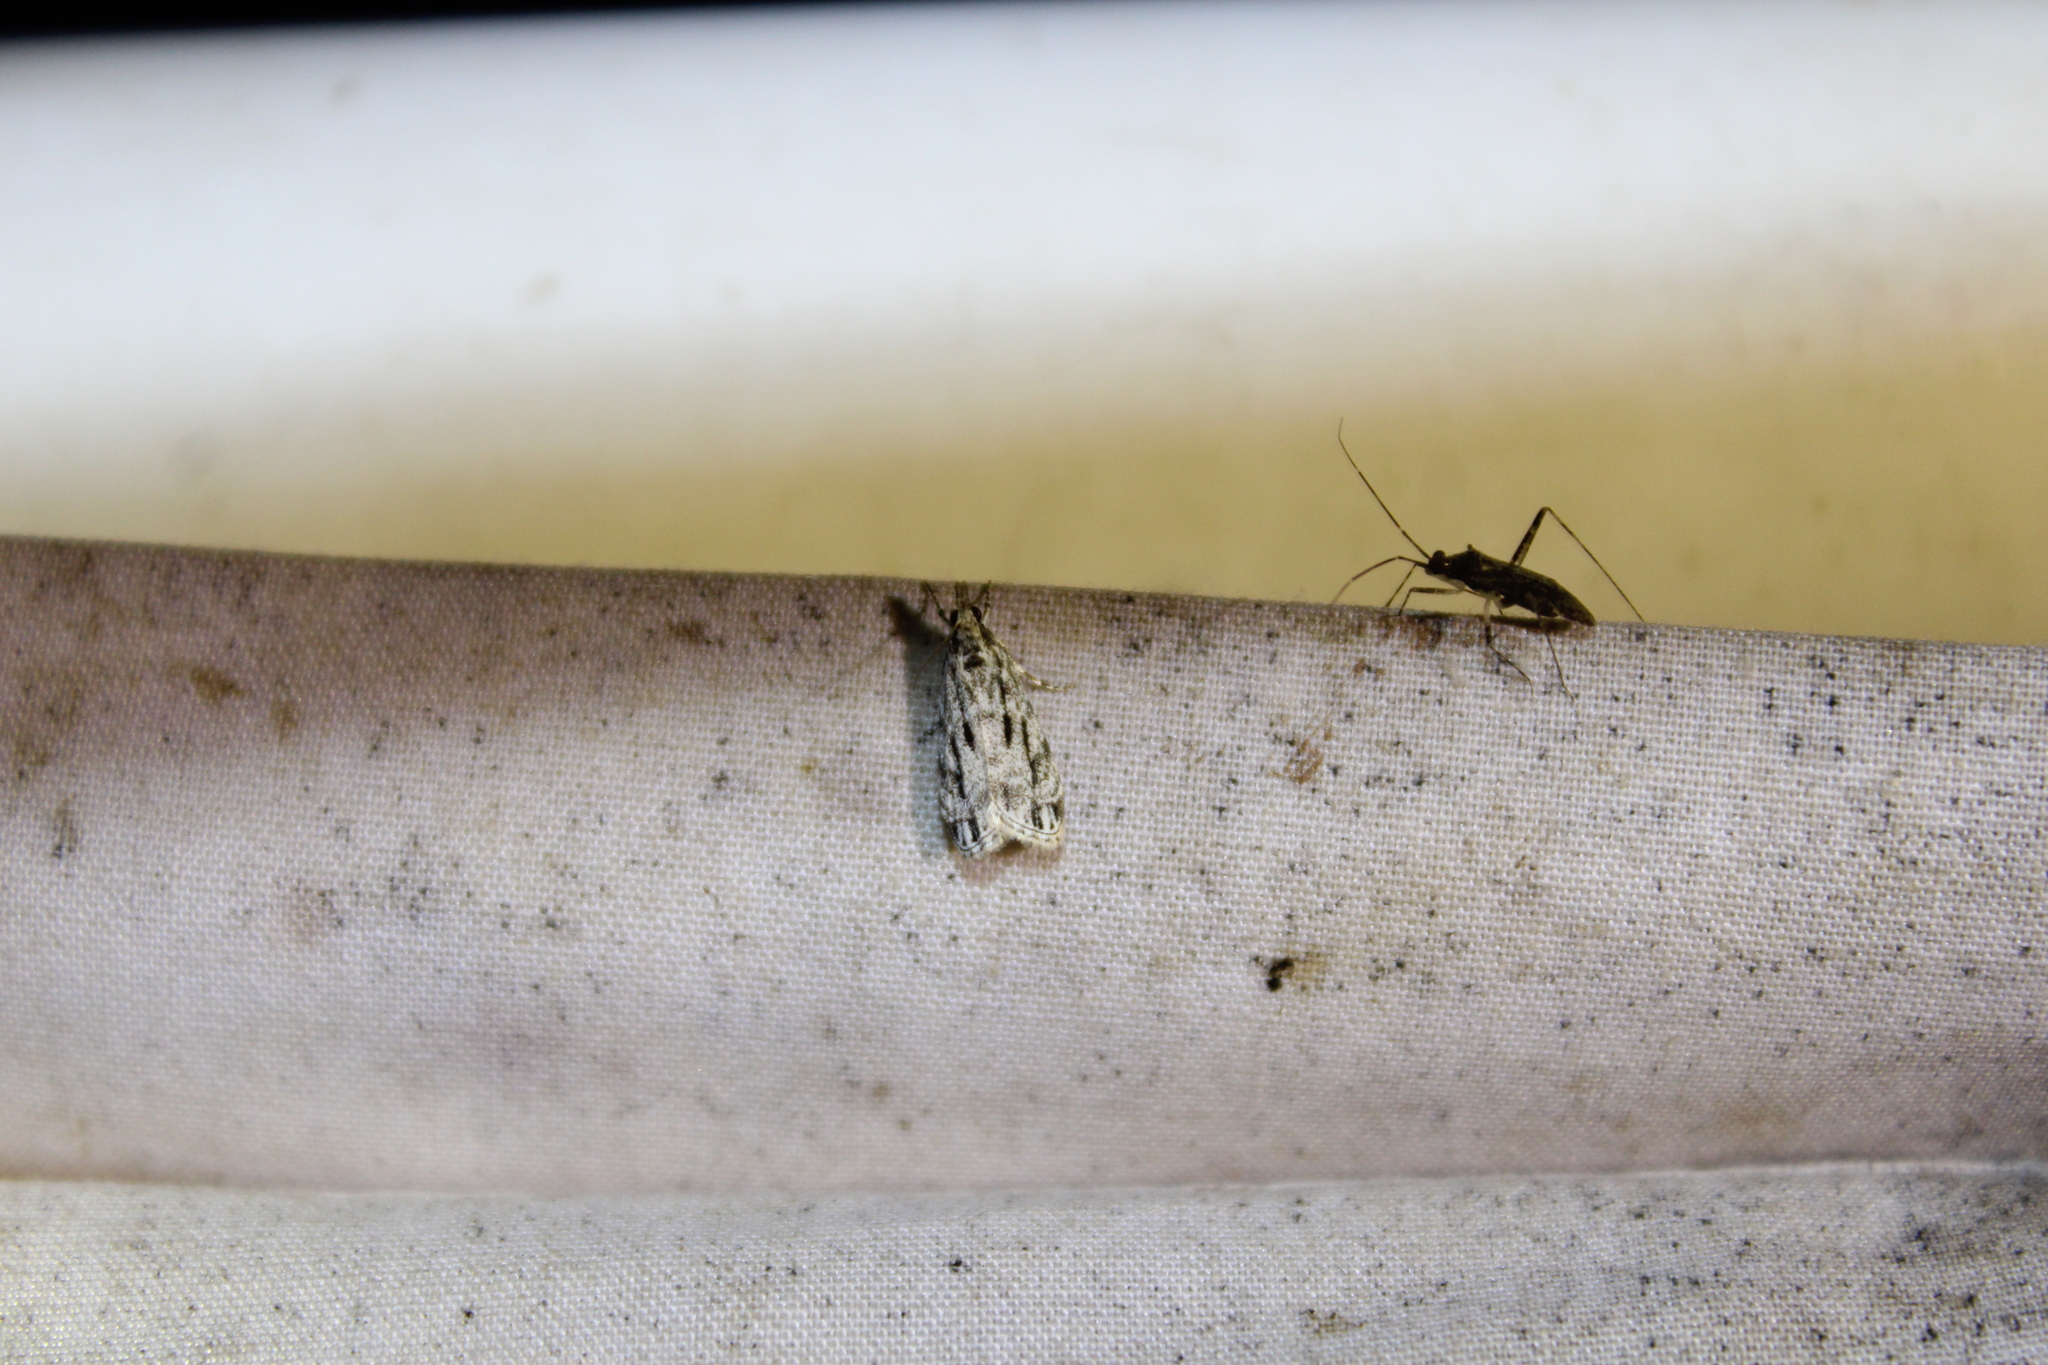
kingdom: Animalia
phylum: Arthropoda
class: Insecta
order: Lepidoptera
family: Crambidae
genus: Eudonia
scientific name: Eudonia strigalis
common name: Striped eudonia moth
